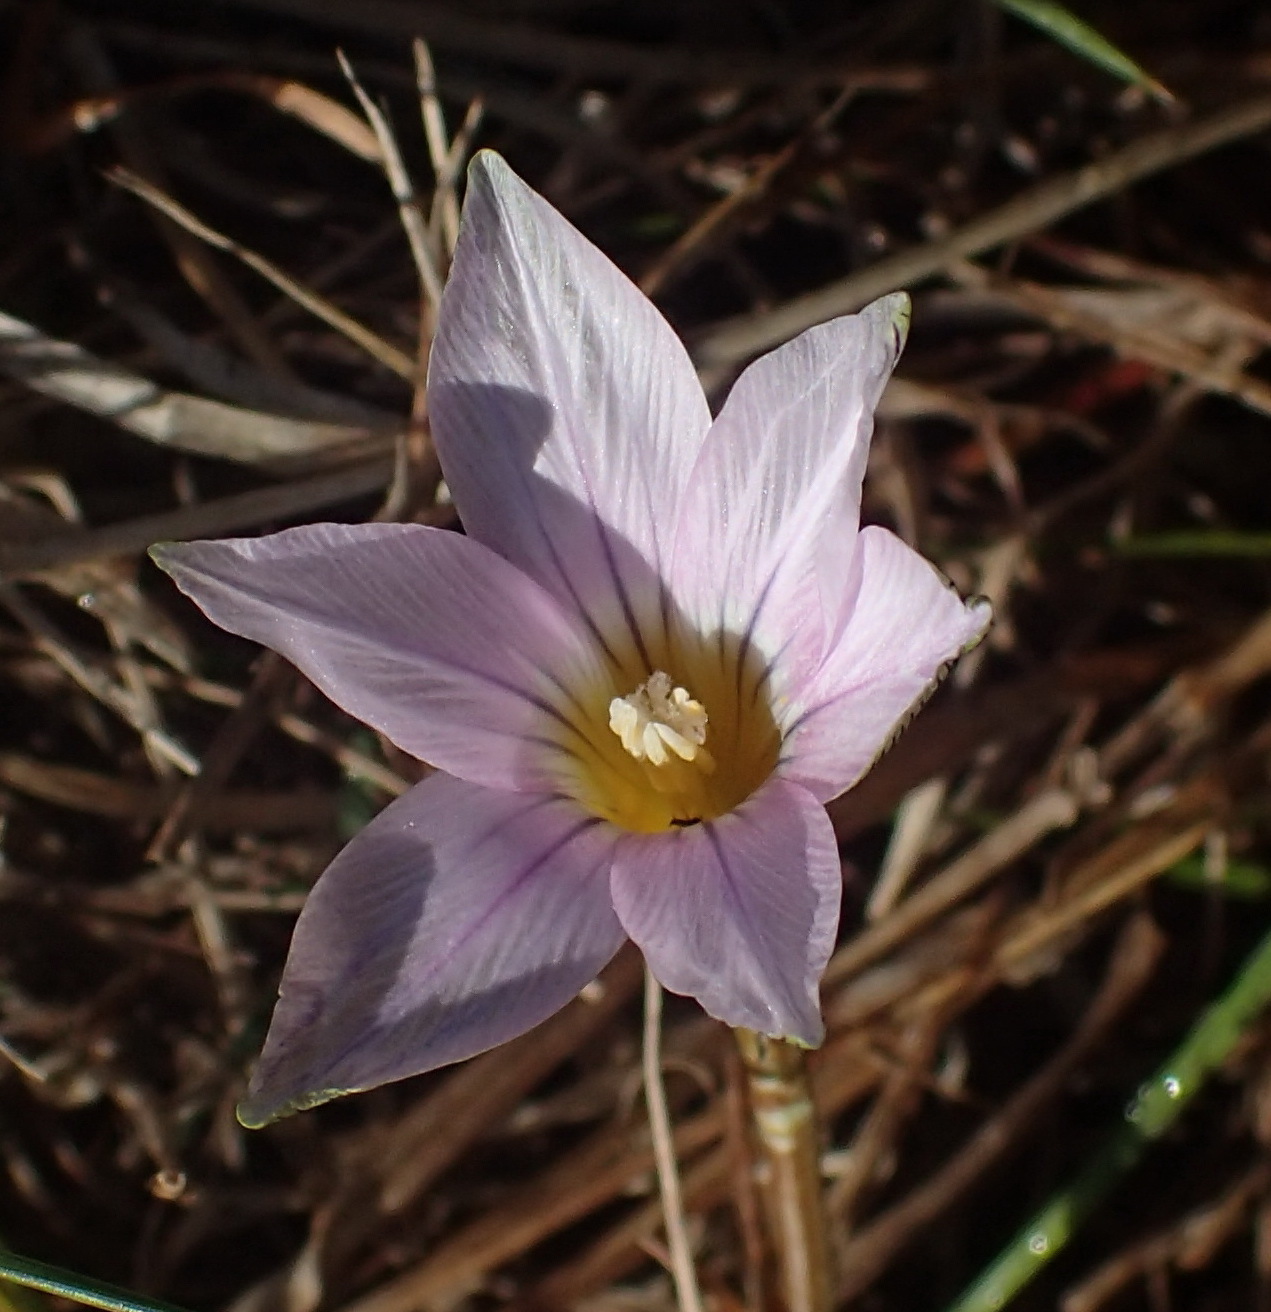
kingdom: Plantae
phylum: Tracheophyta
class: Liliopsida
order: Asparagales
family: Iridaceae
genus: Romulea
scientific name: Romulea rosea
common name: Oniongrass
